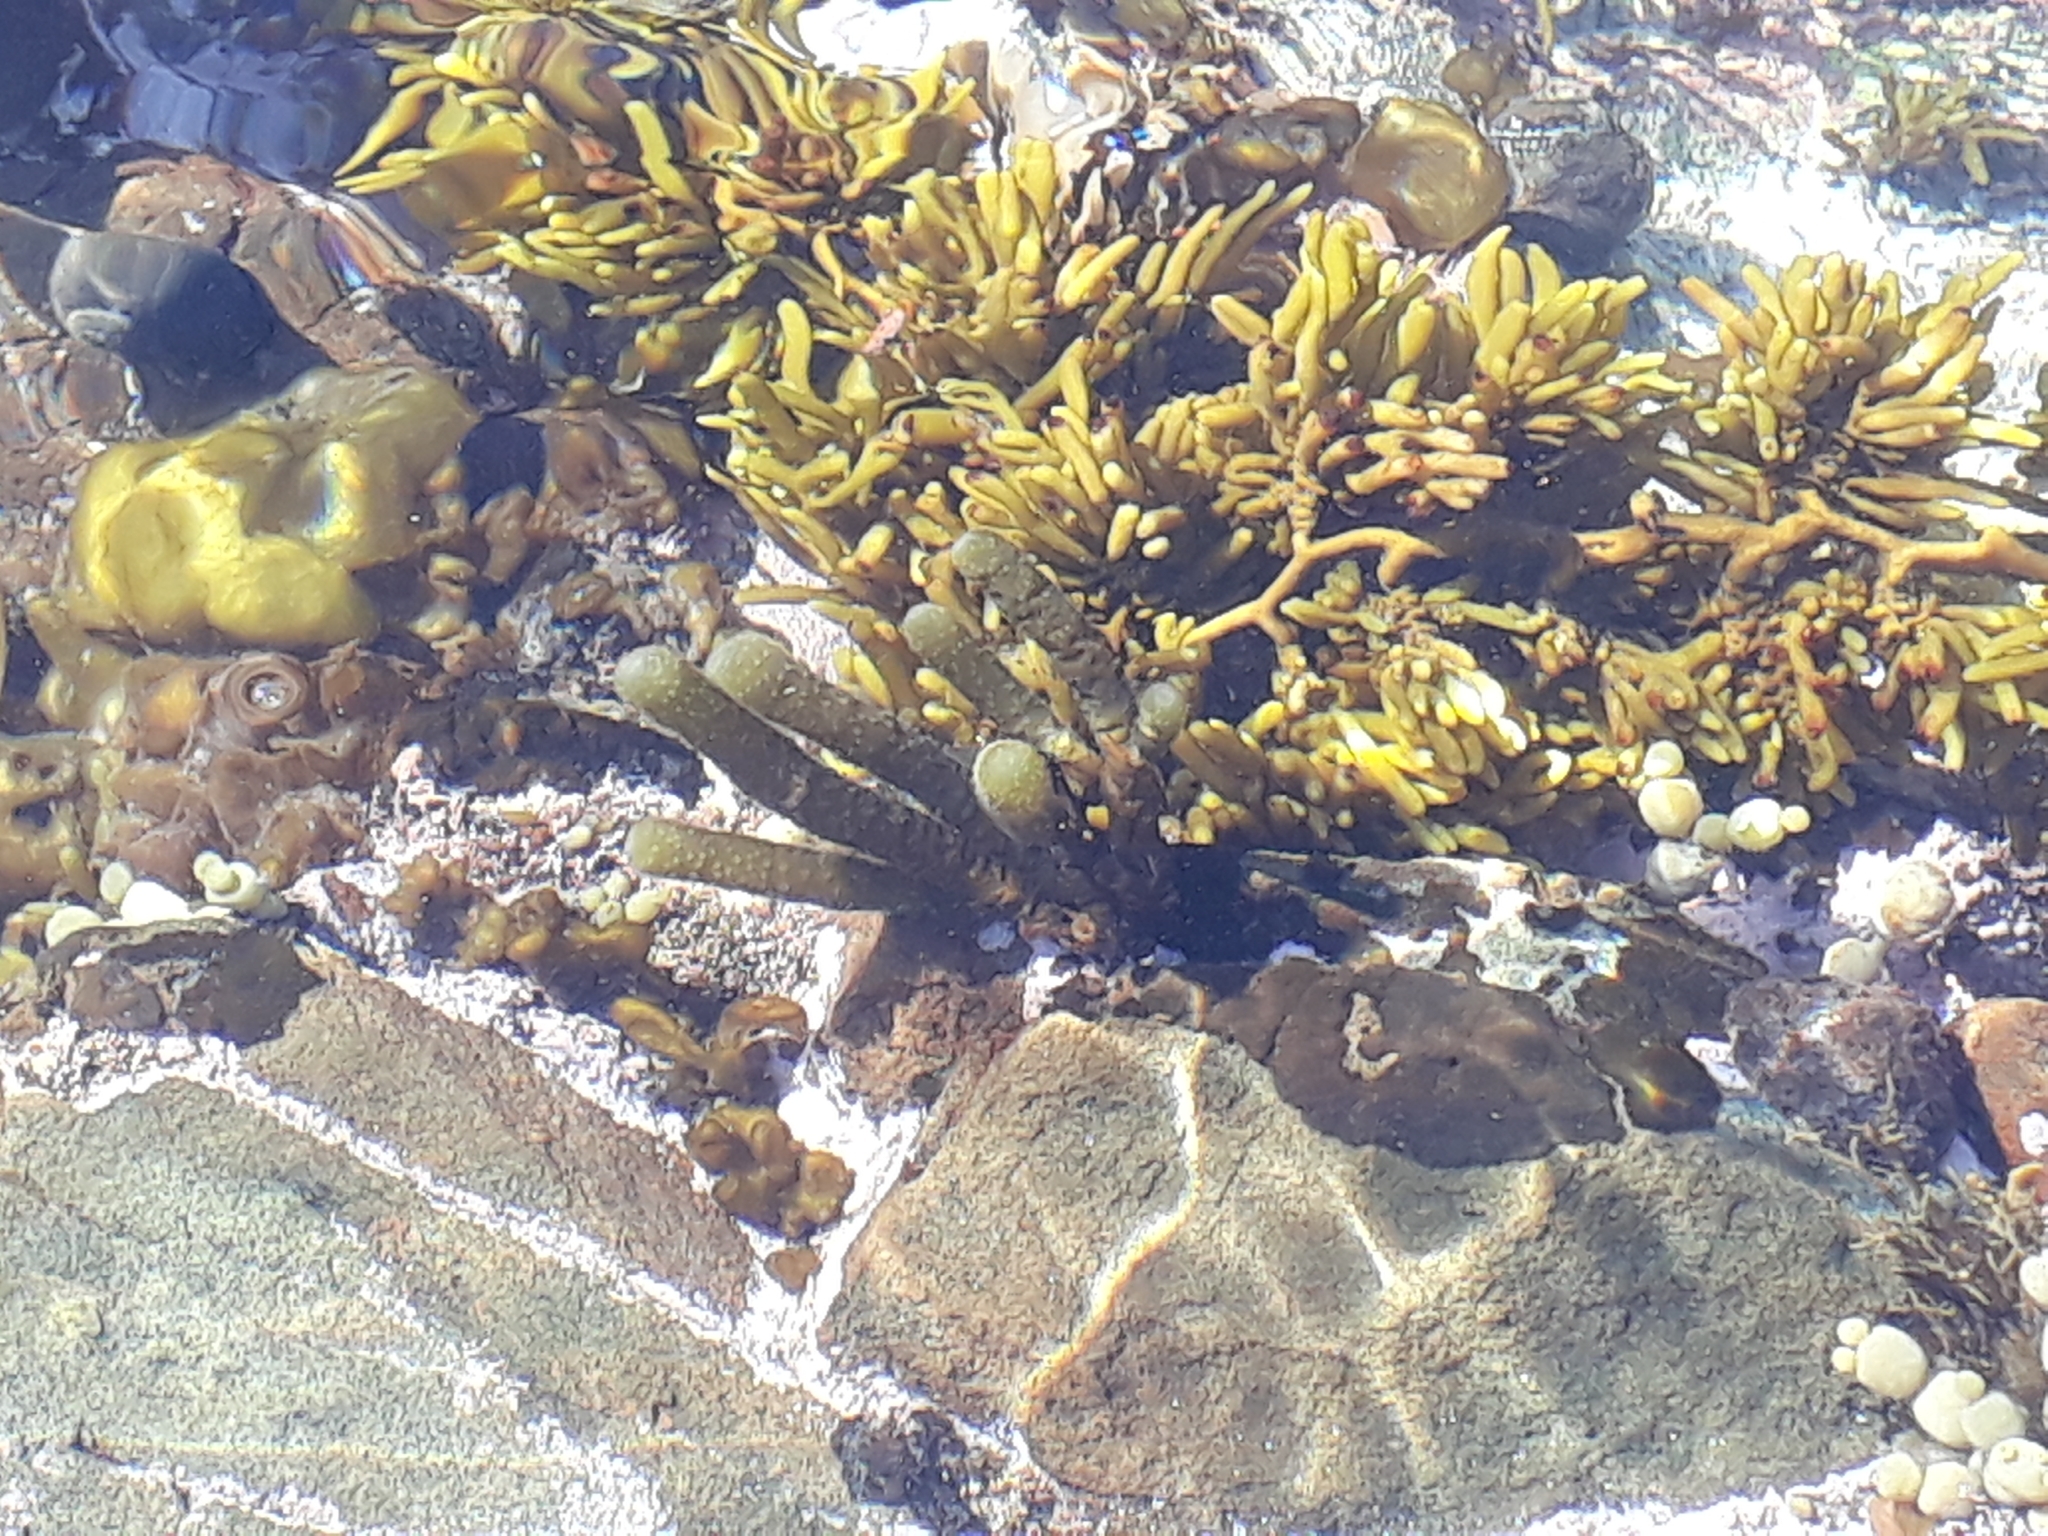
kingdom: Chromista
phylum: Ochrophyta
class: Phaeophyceae
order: Scytothamnales
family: Splachnidiaceae
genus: Splachnidium
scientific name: Splachnidium rugosum
